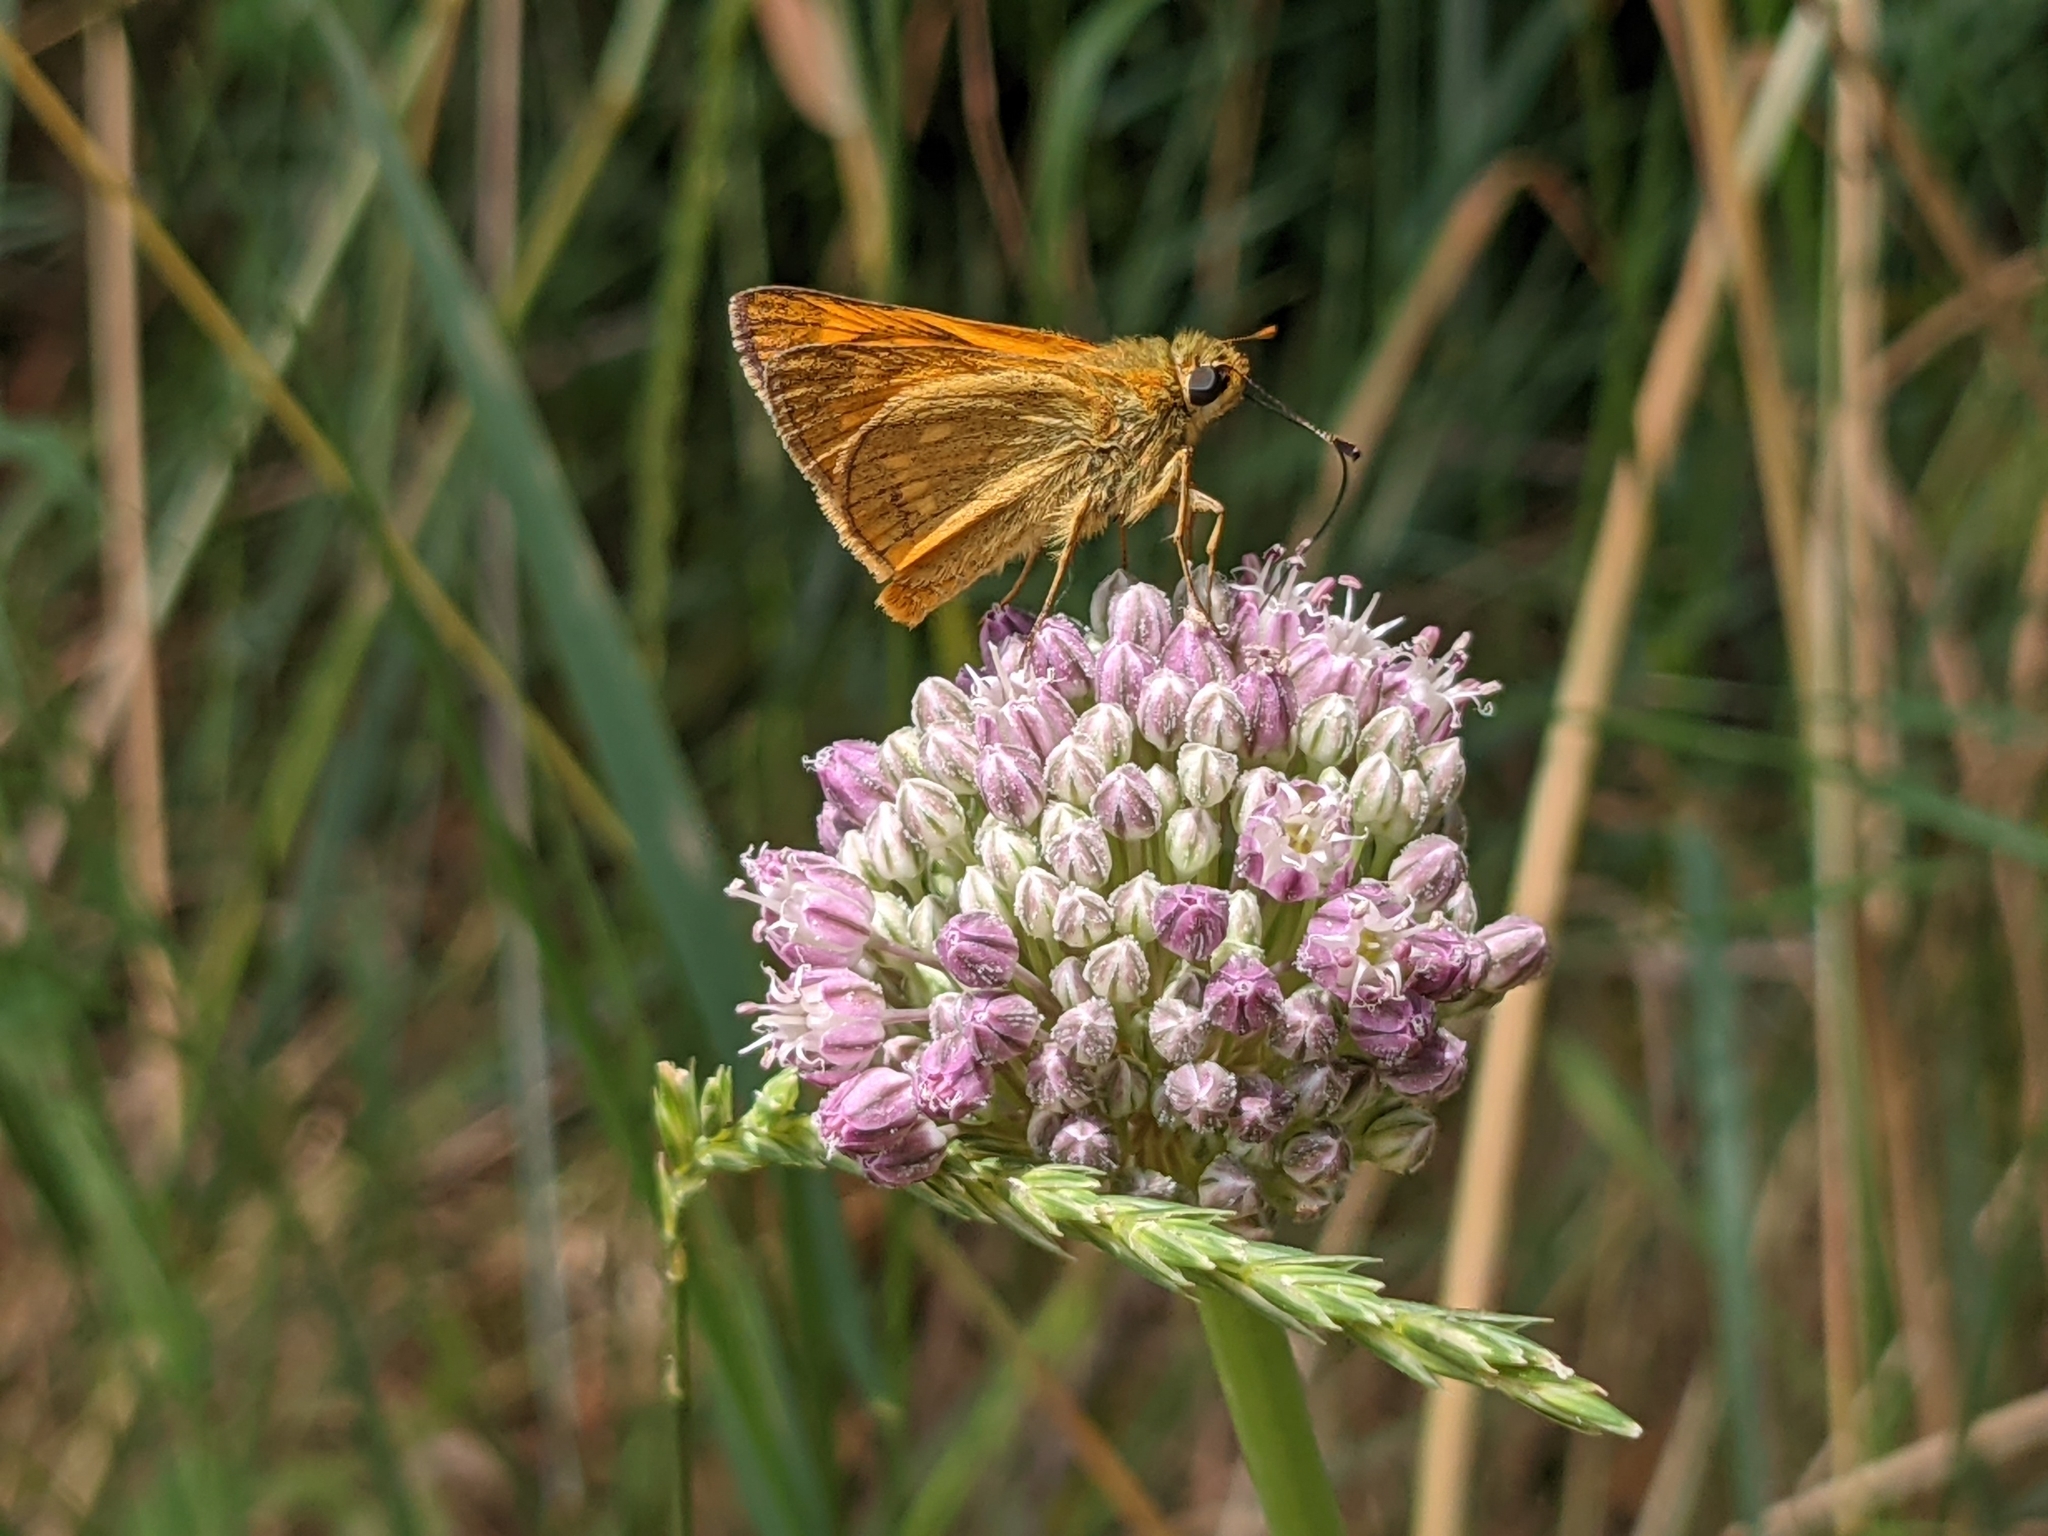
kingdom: Animalia
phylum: Arthropoda
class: Insecta
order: Lepidoptera
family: Hesperiidae
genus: Ochlodes
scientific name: Ochlodes venata
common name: Large skipper
